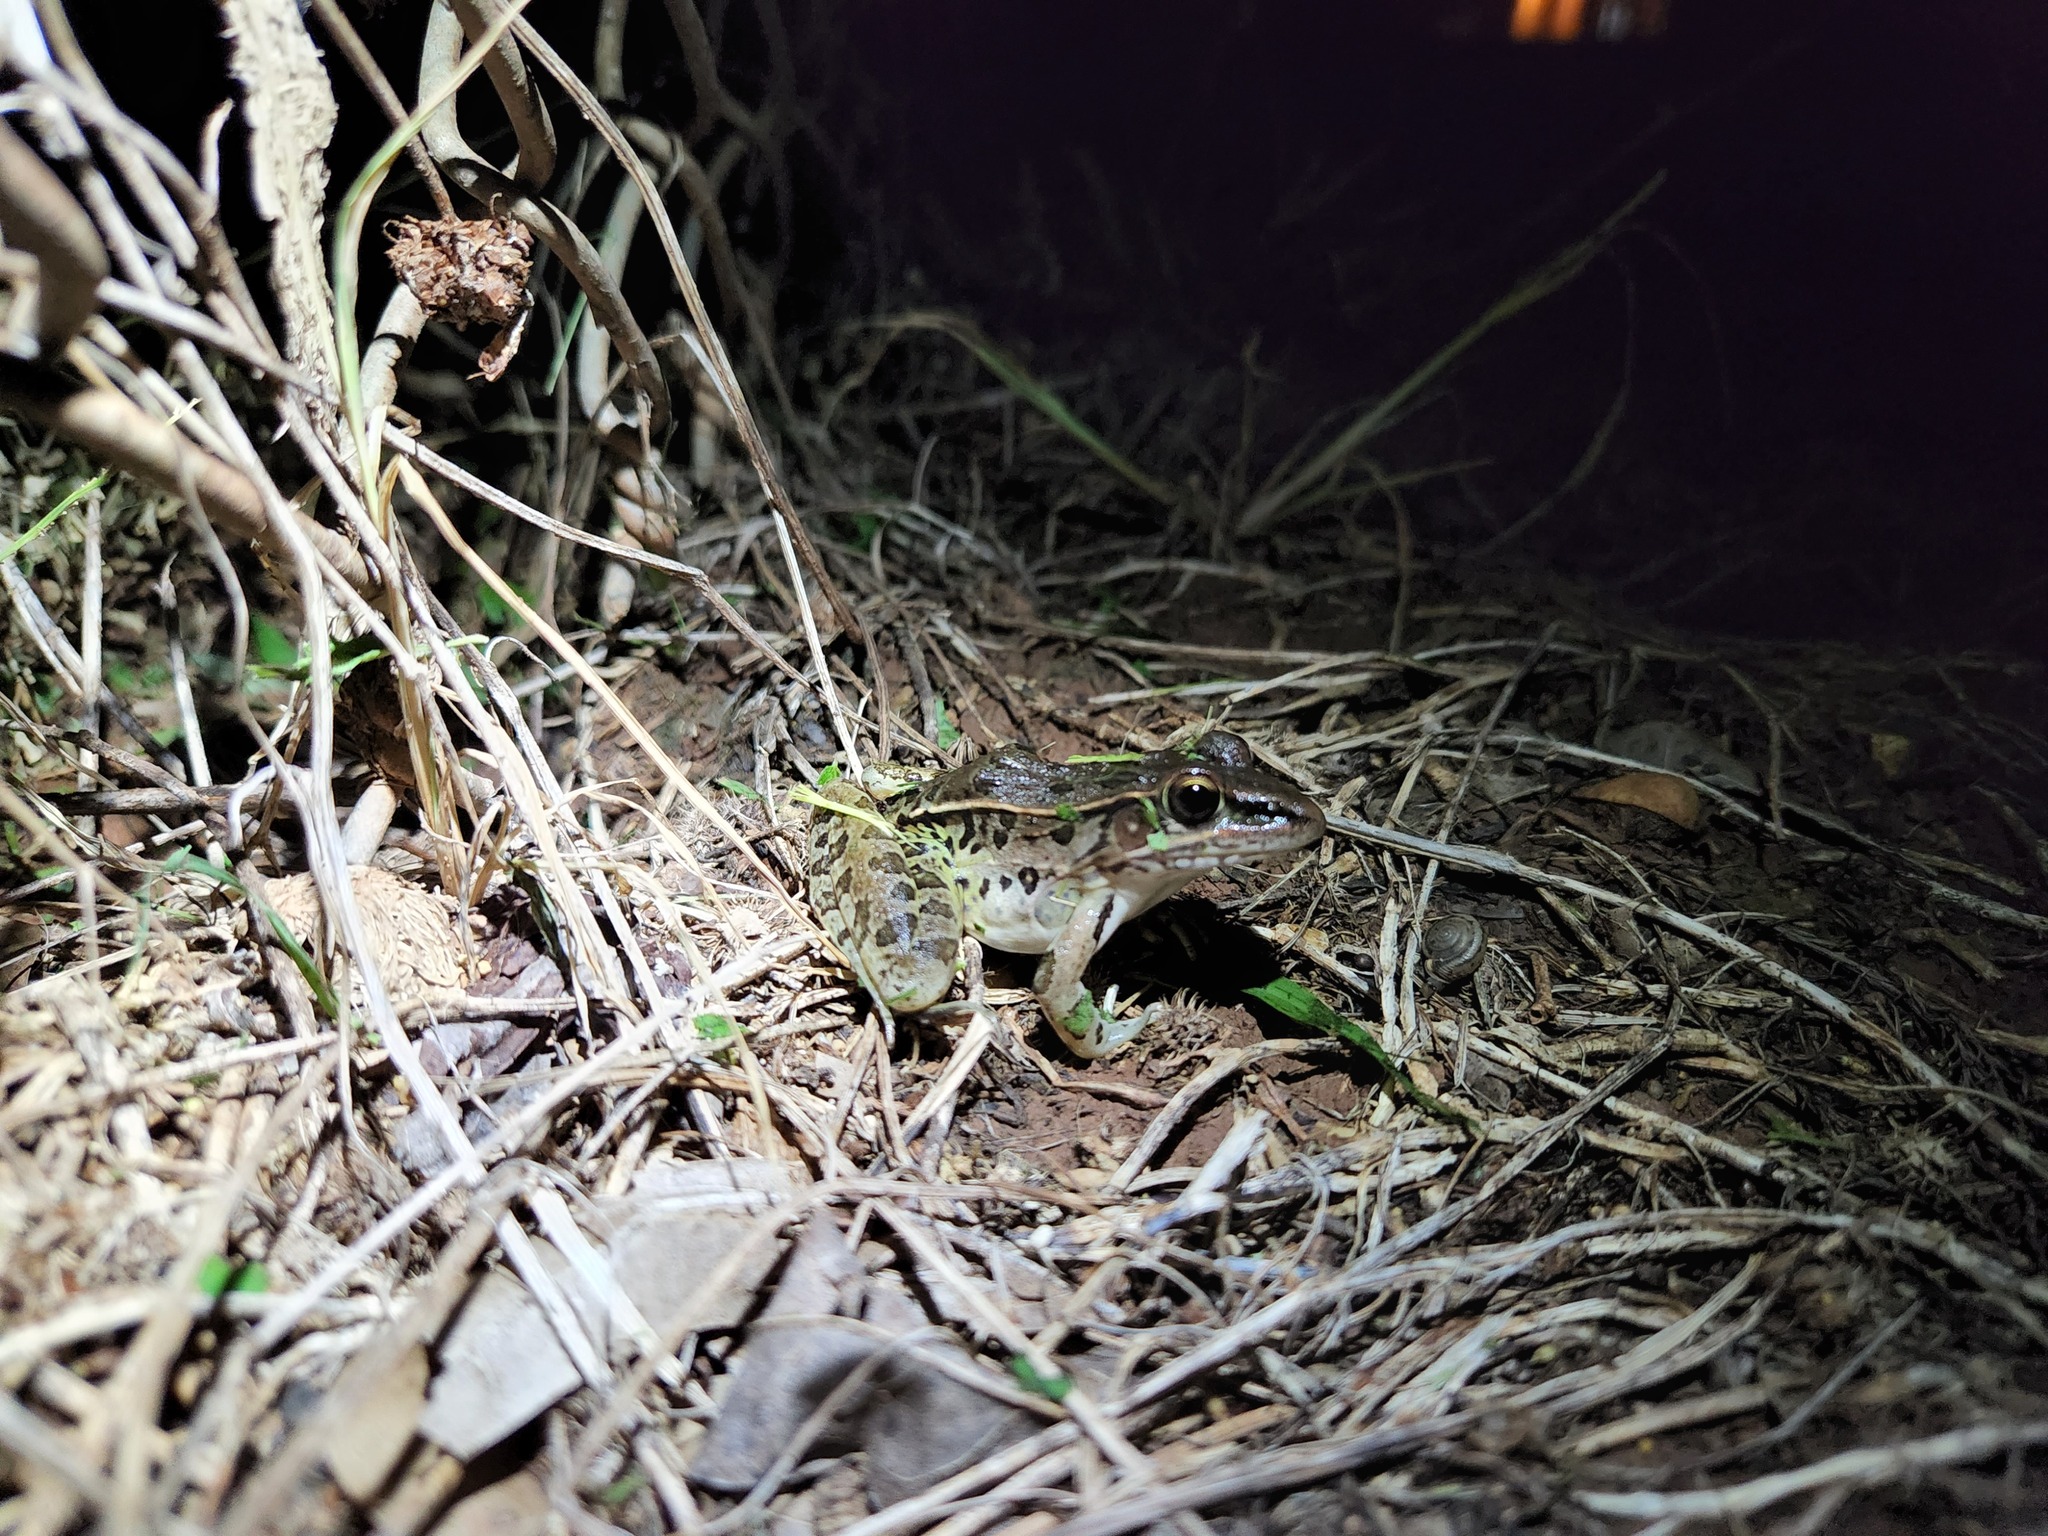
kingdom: Animalia
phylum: Chordata
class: Amphibia
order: Anura
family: Ranidae
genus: Lithobates
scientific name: Lithobates sphenocephalus
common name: Southern leopard frog
